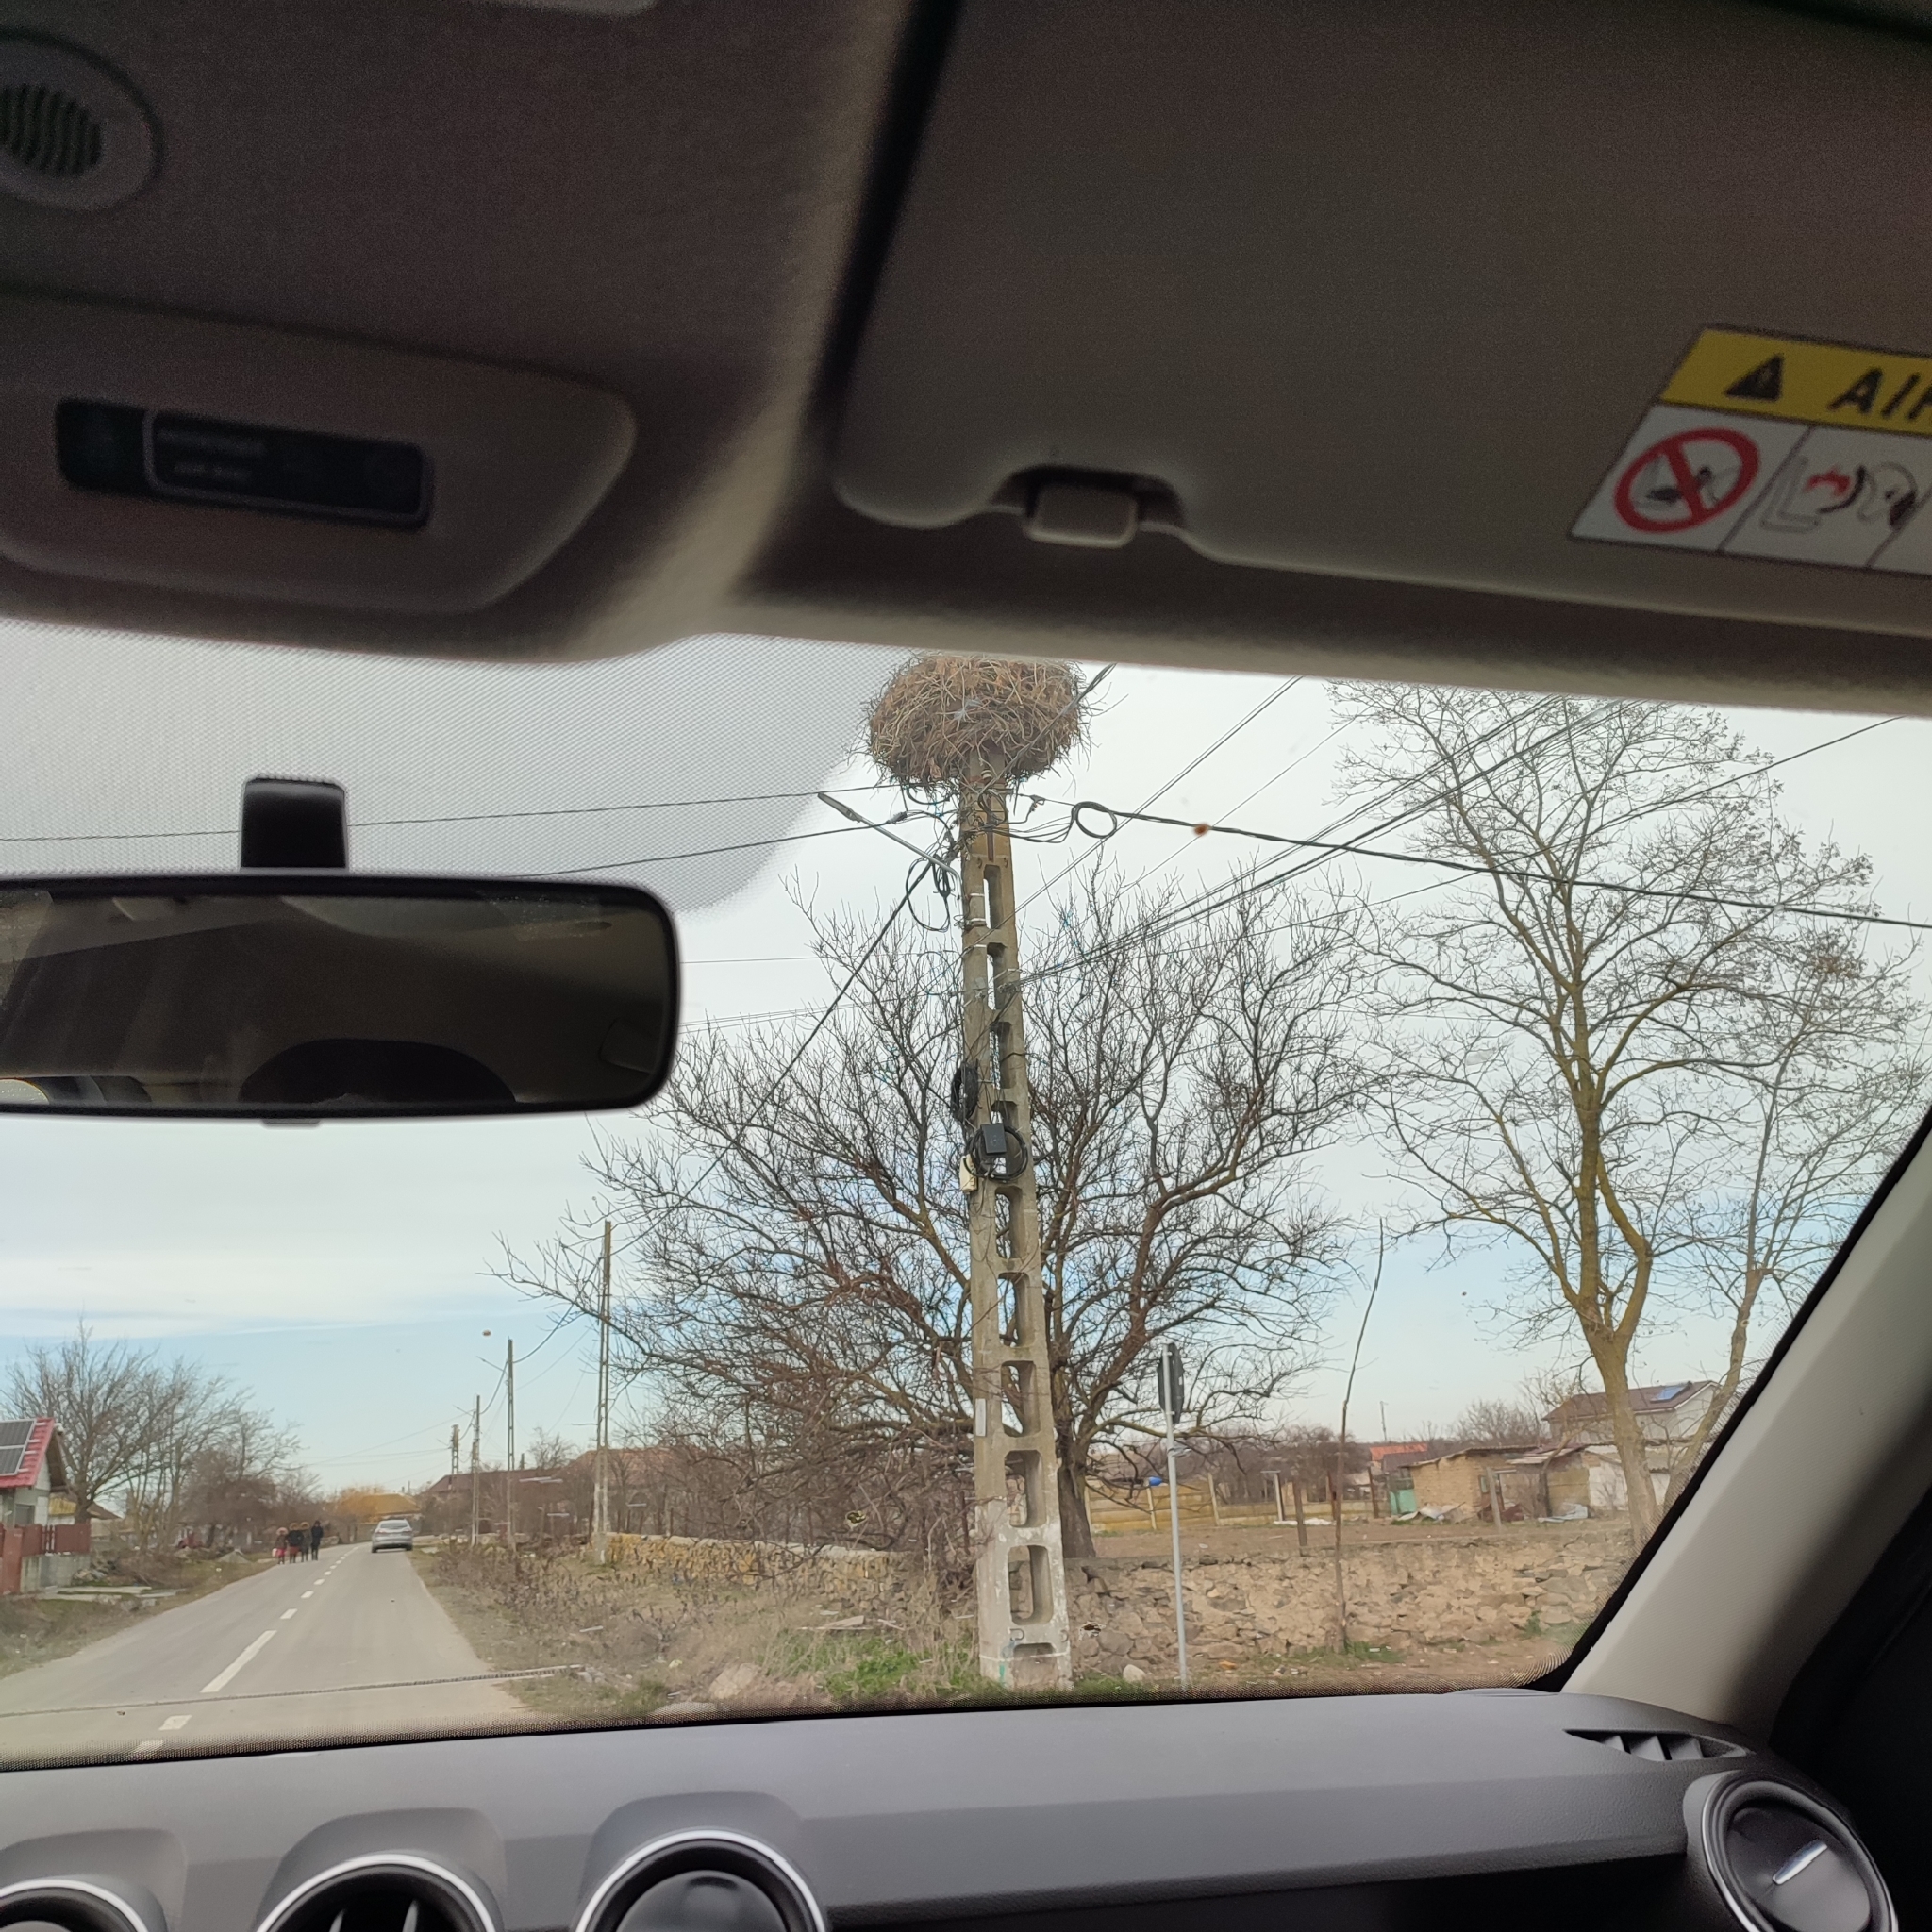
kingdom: Animalia
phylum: Chordata
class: Aves
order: Ciconiiformes
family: Ciconiidae
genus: Ciconia
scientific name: Ciconia ciconia
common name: White stork
